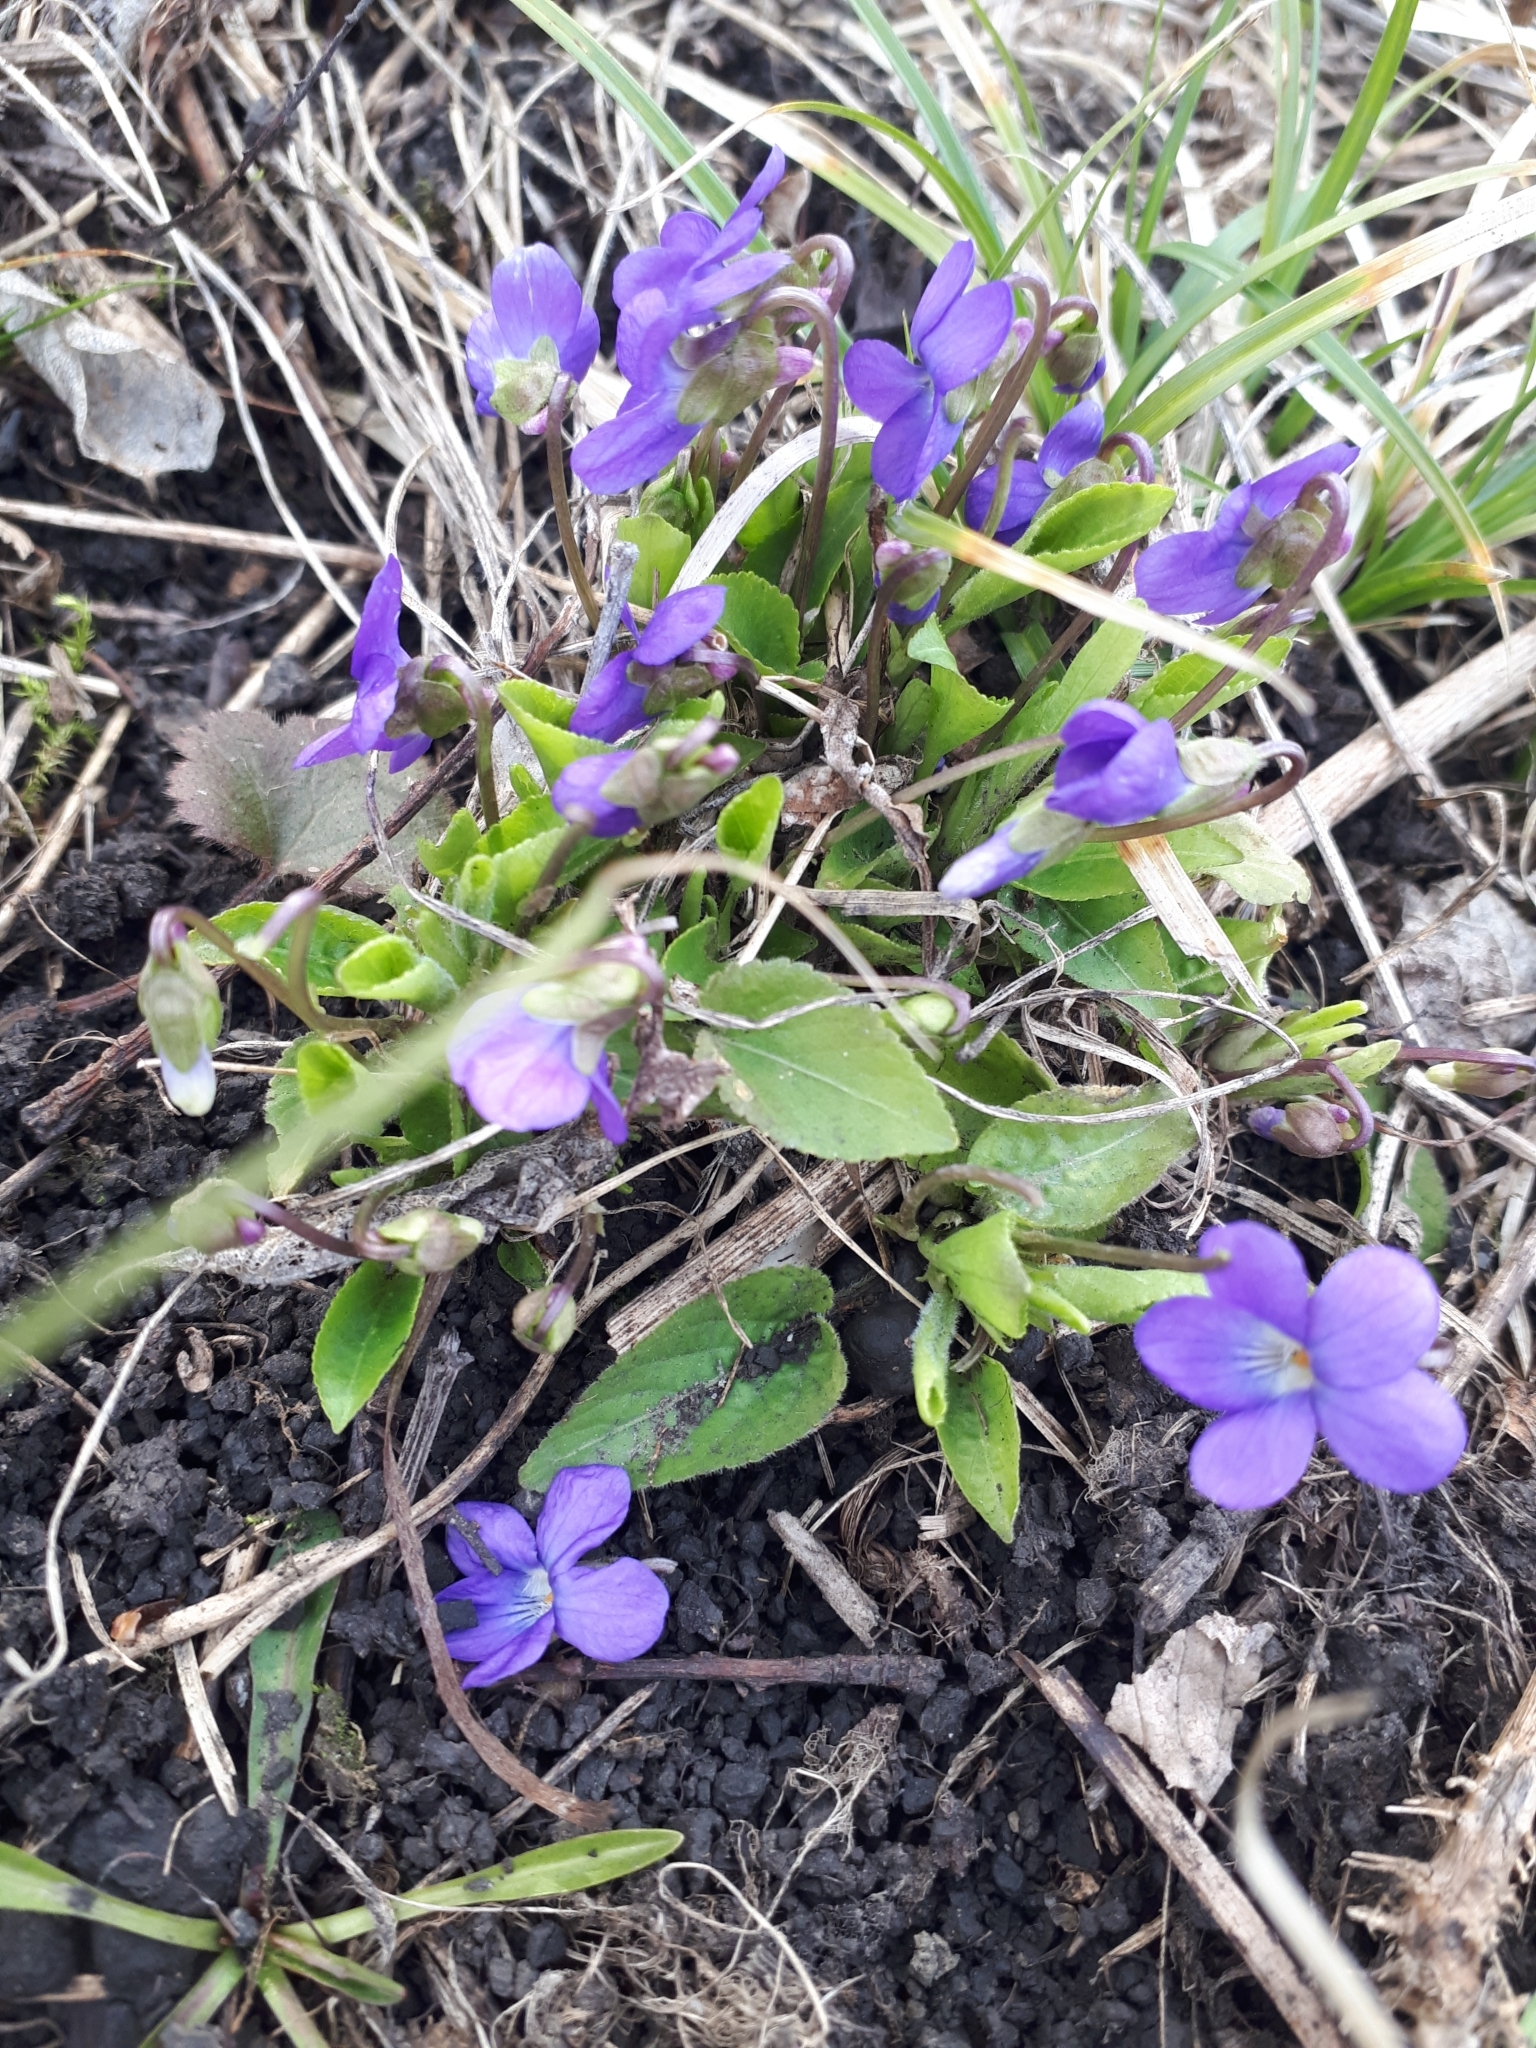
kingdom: Plantae
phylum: Tracheophyta
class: Magnoliopsida
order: Malpighiales
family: Violaceae
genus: Viola
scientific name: Viola ambigua
